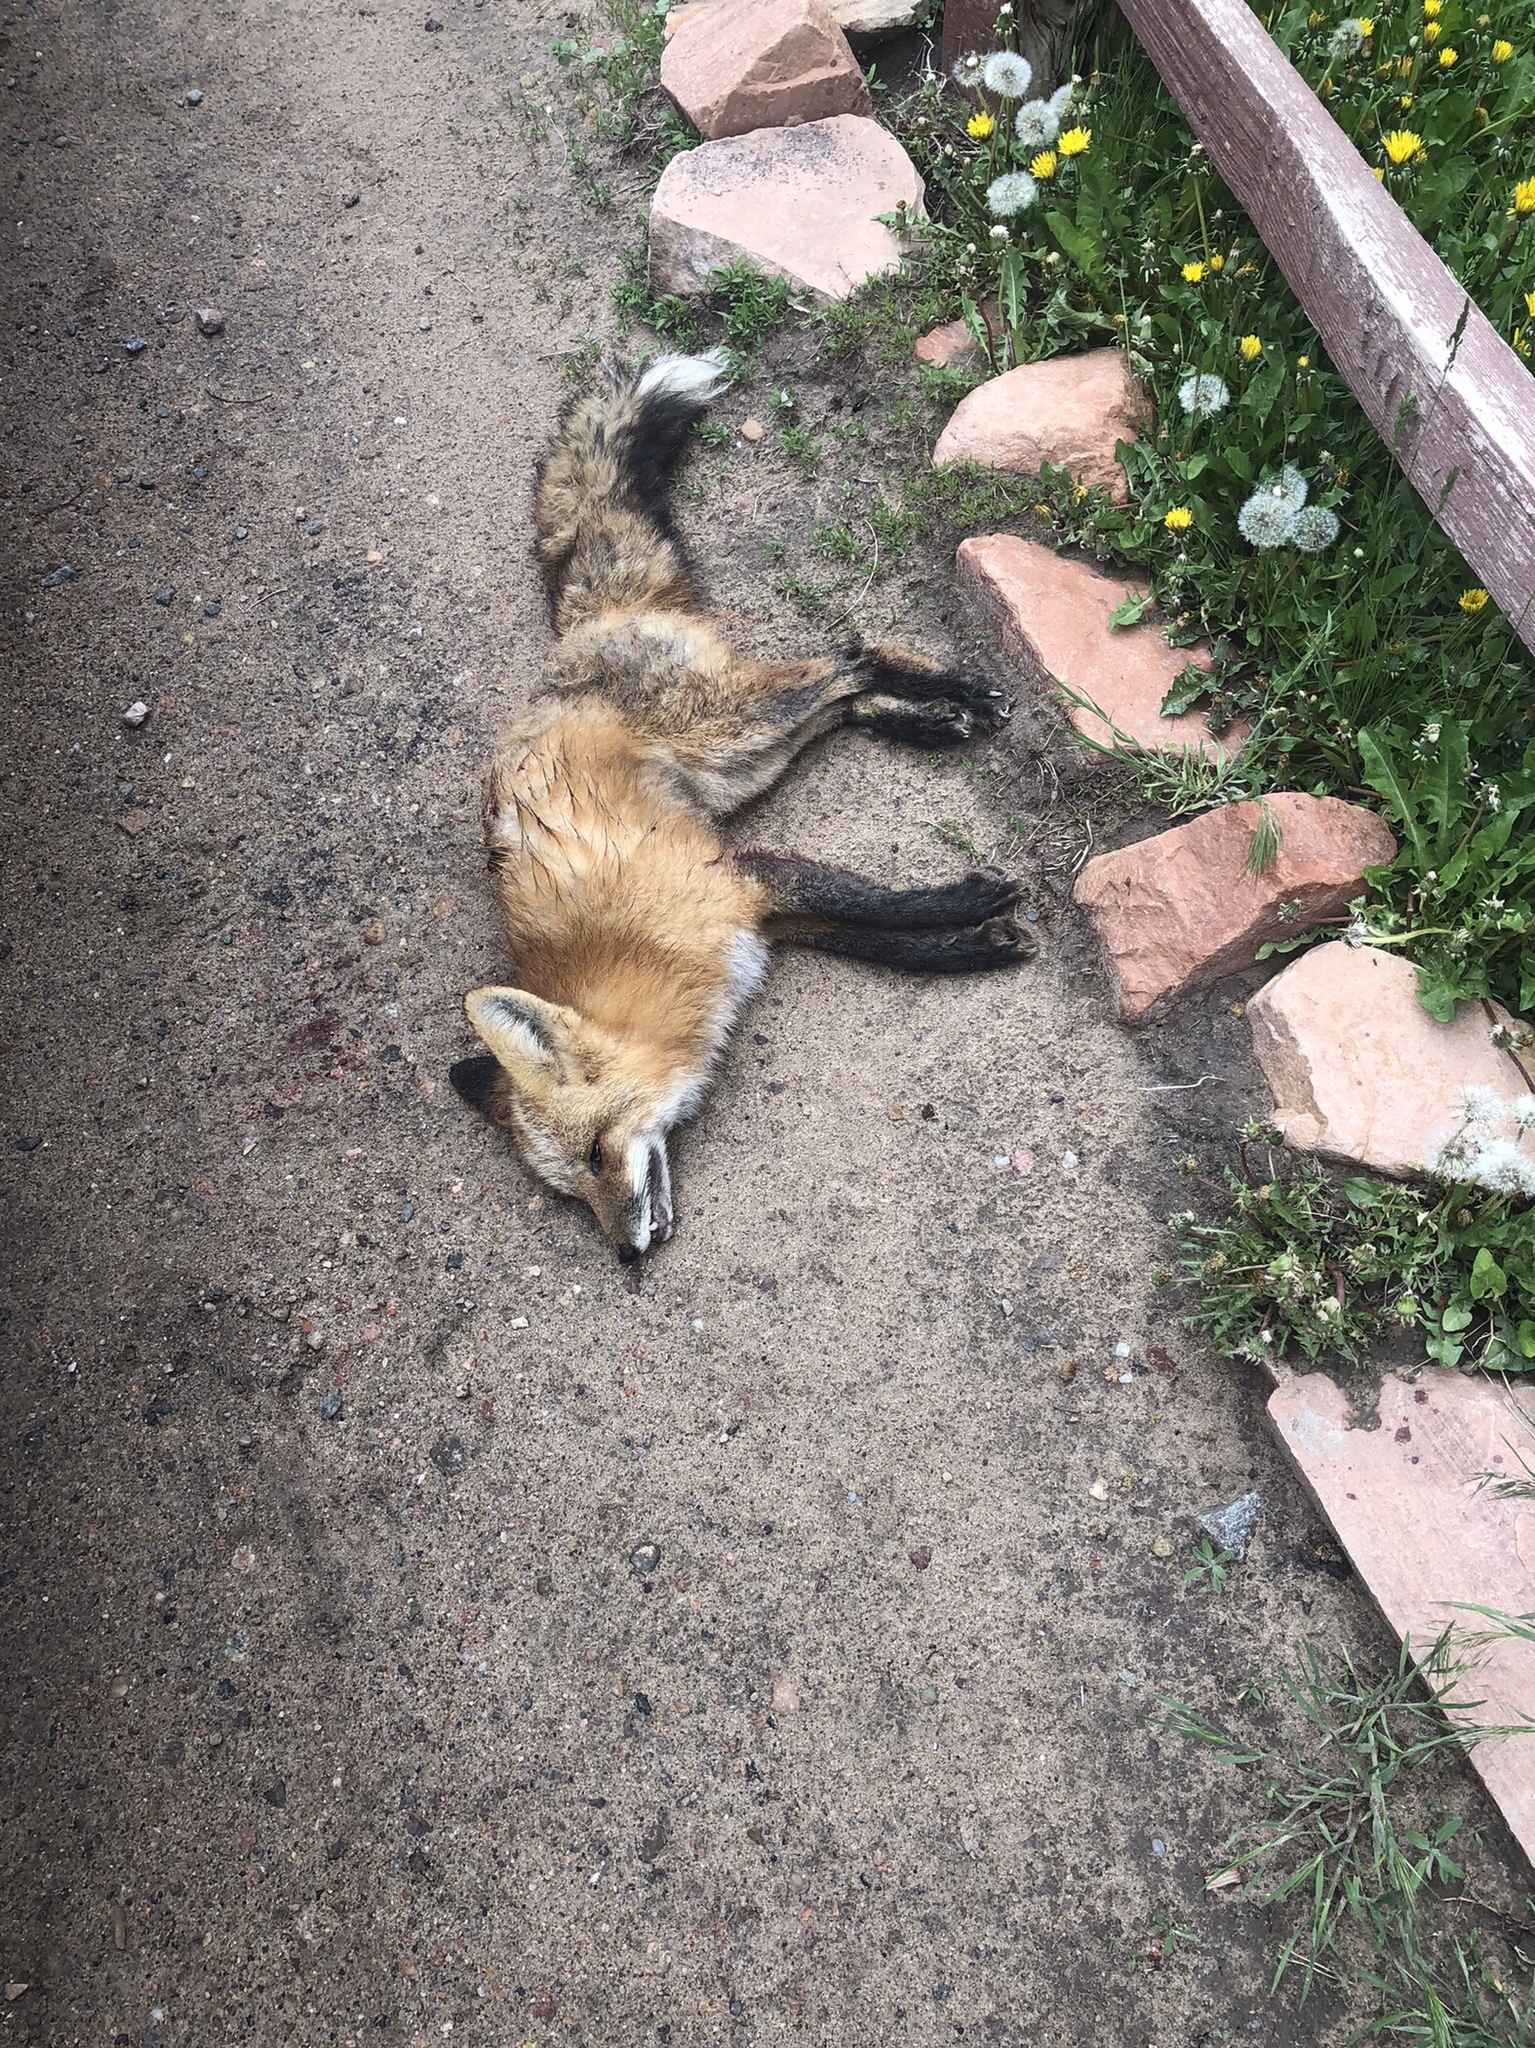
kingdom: Animalia
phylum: Chordata
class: Mammalia
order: Carnivora
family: Canidae
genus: Vulpes
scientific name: Vulpes vulpes
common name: Red fox
